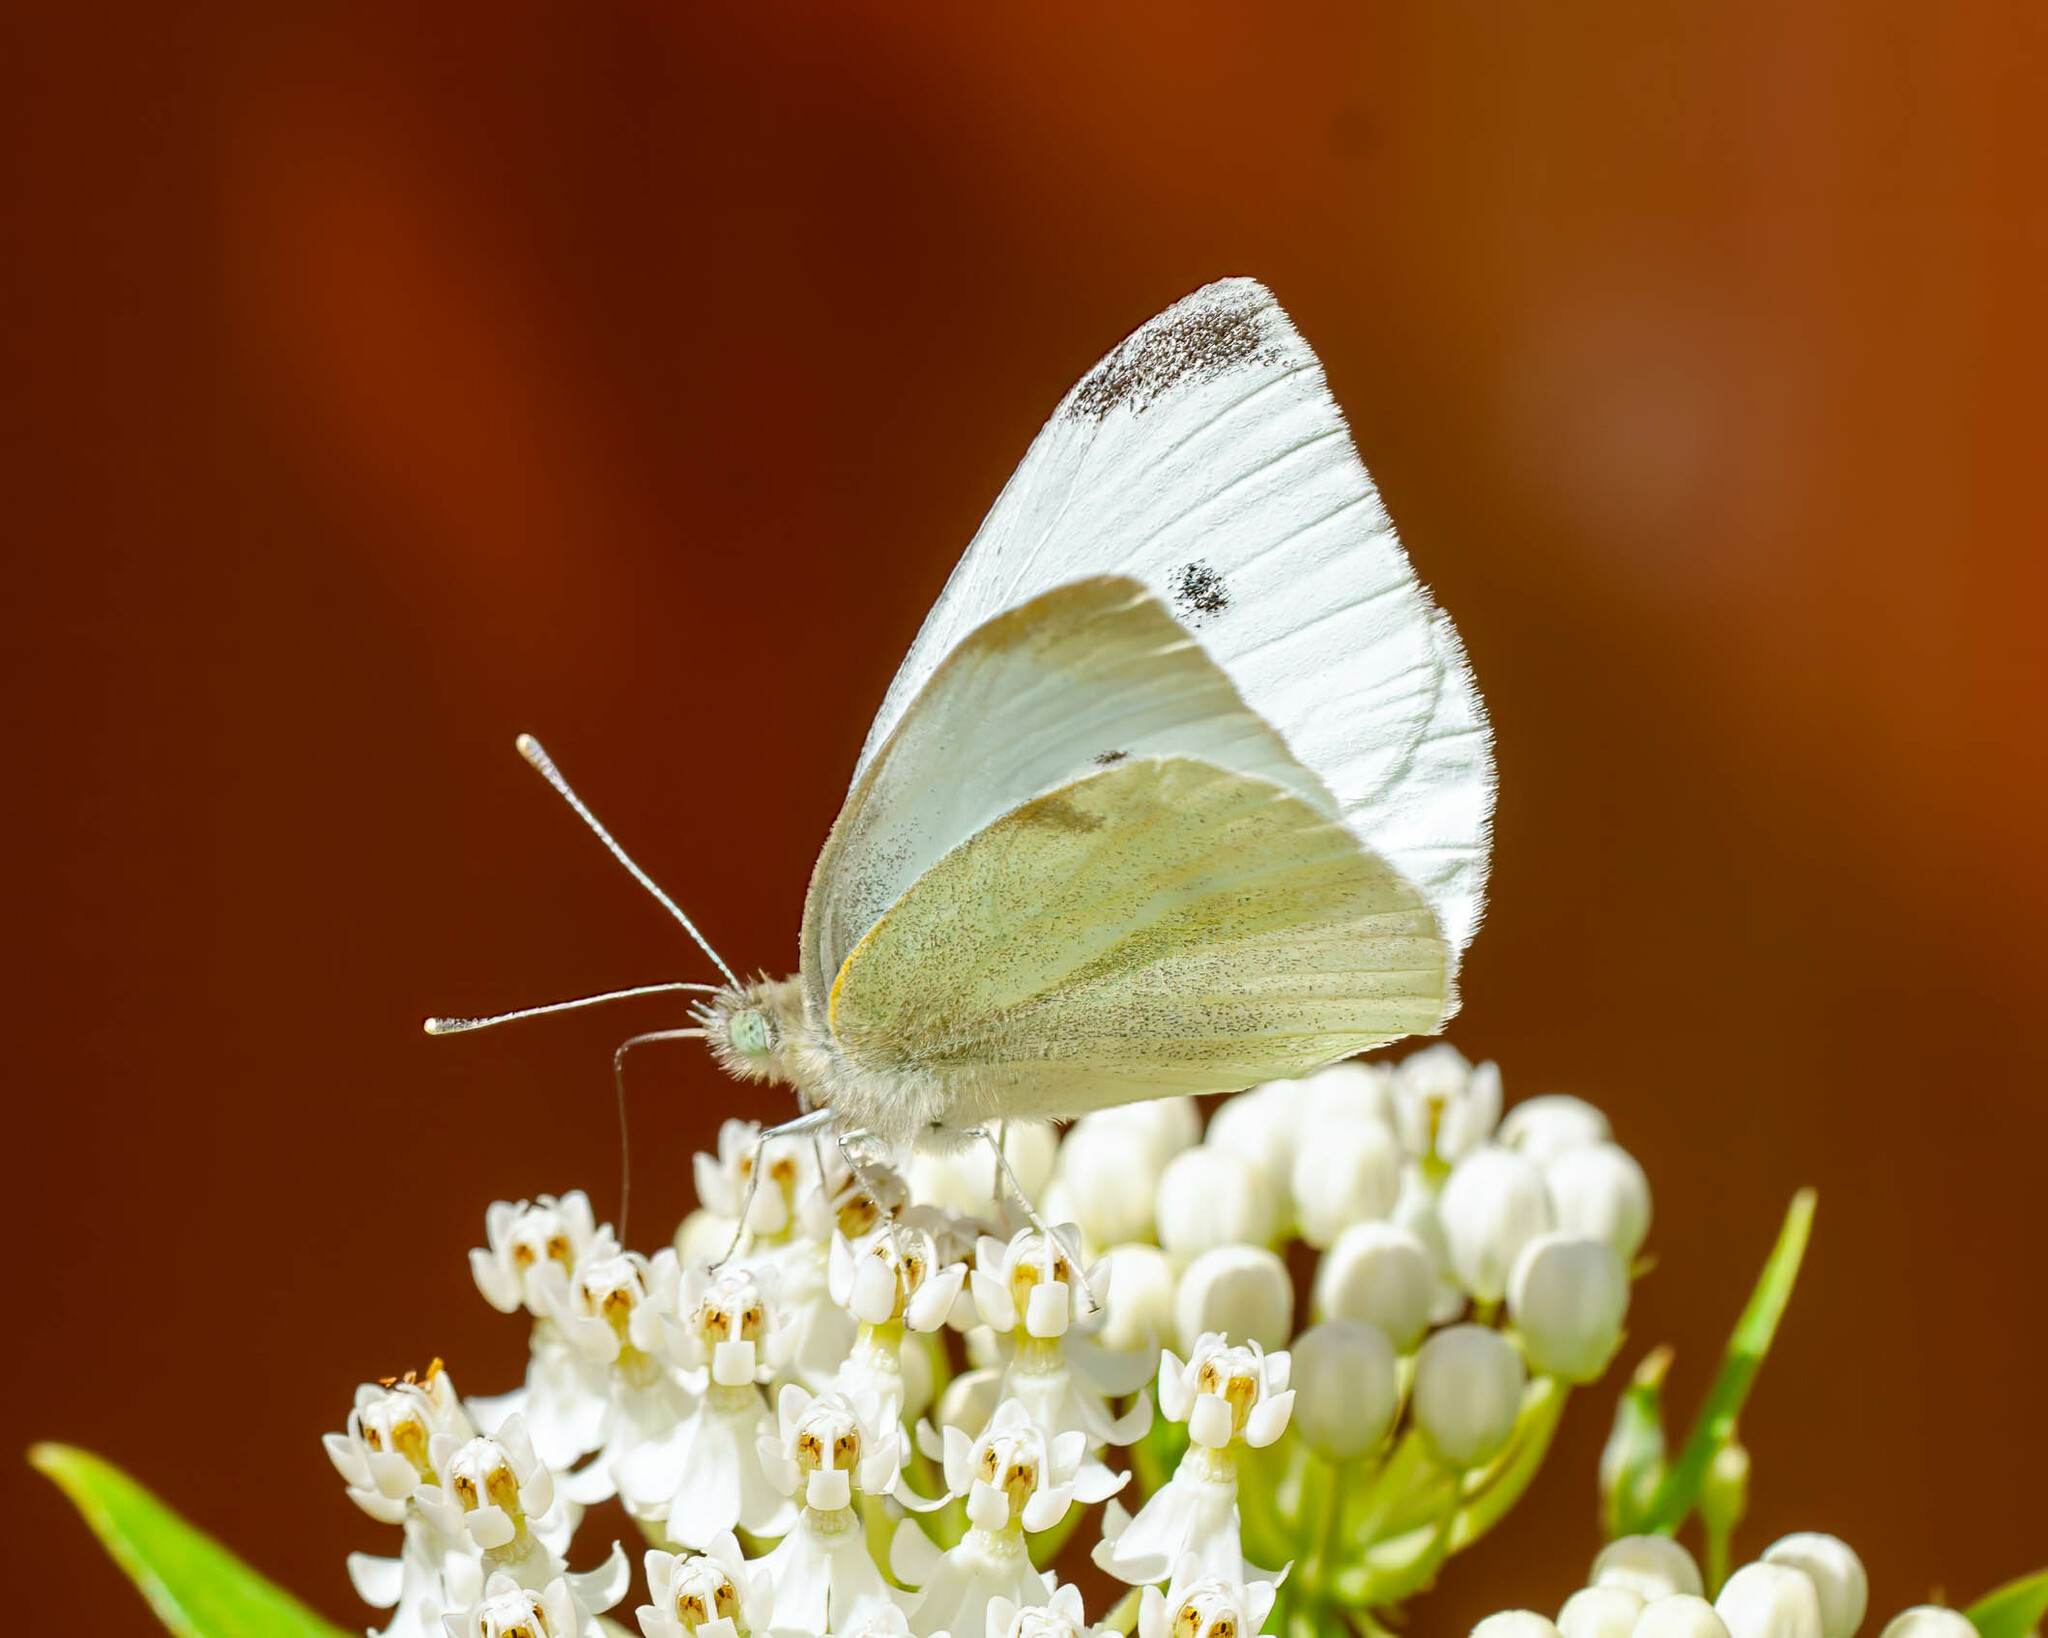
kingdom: Animalia
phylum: Arthropoda
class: Insecta
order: Lepidoptera
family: Pieridae
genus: Pieris
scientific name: Pieris rapae
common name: Small white
